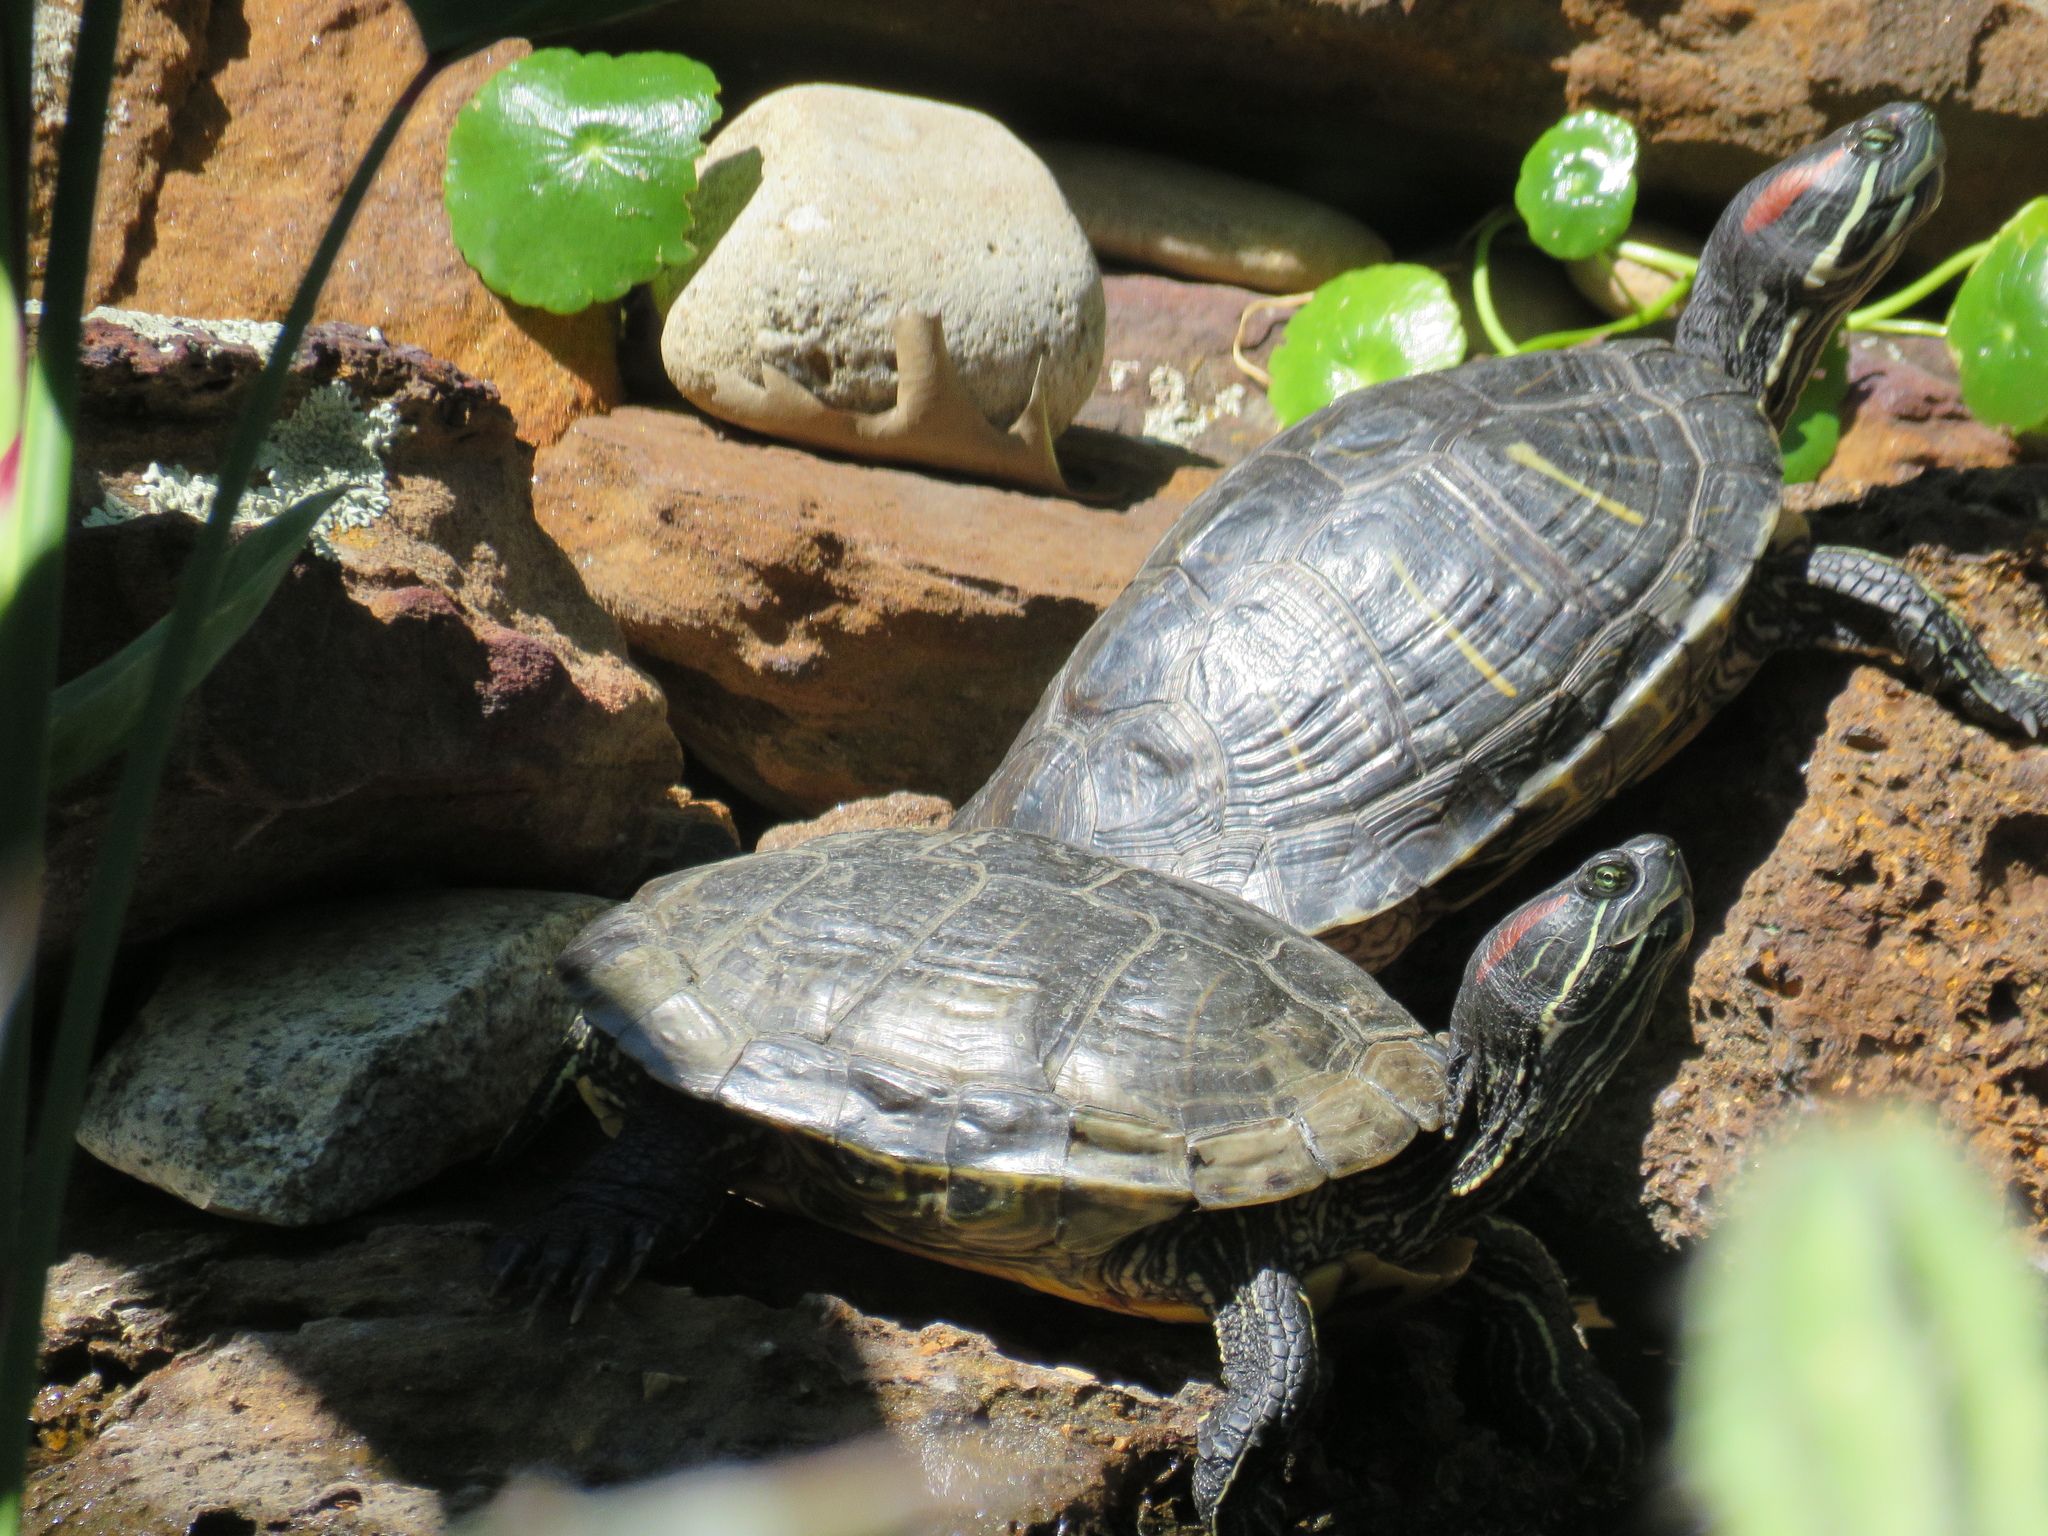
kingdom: Animalia
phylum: Chordata
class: Testudines
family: Emydidae
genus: Trachemys
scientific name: Trachemys scripta
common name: Slider
